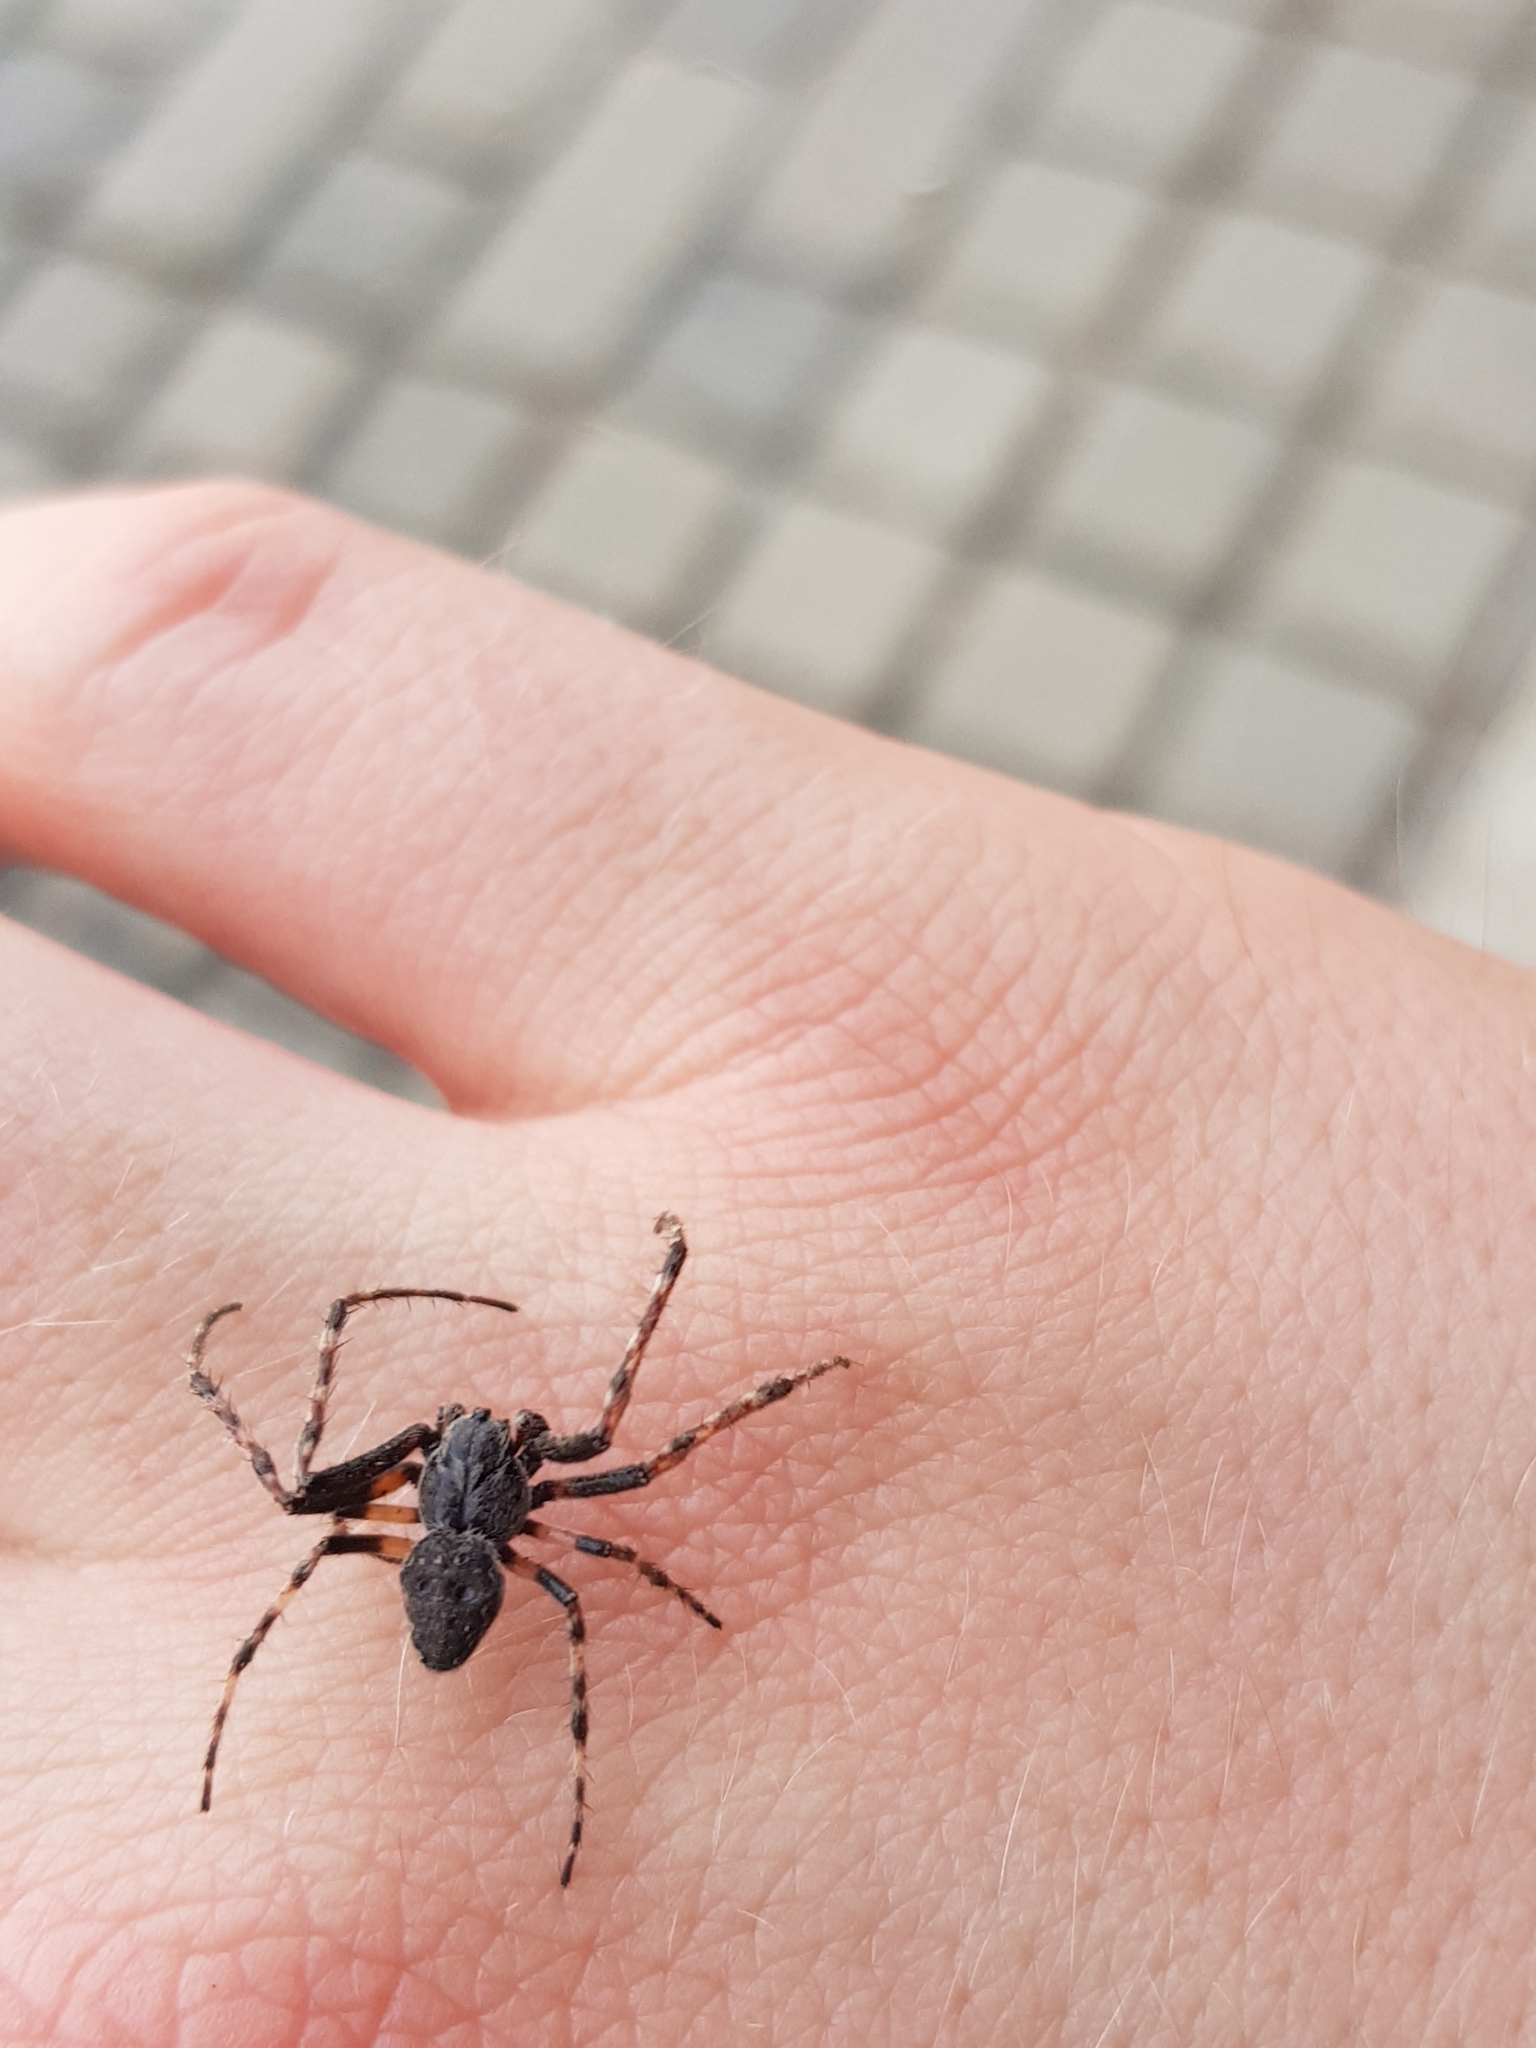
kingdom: Animalia
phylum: Arthropoda
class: Arachnida
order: Araneae
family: Araneidae
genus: Nuctenea
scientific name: Nuctenea umbratica
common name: Toad spider
